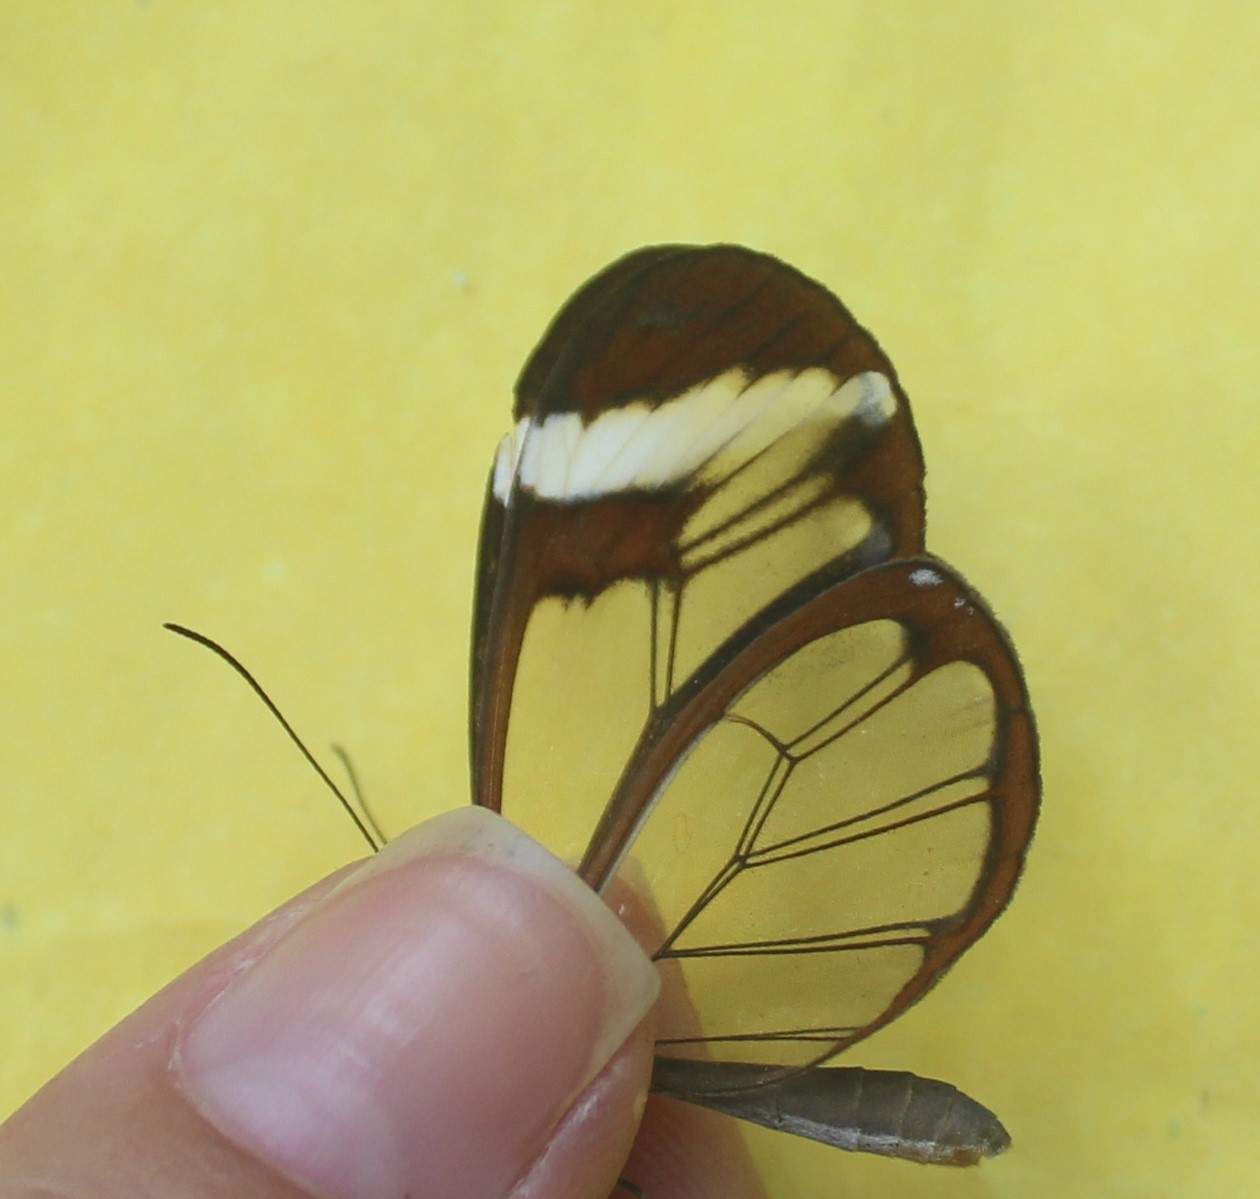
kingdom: Animalia
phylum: Arthropoda
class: Insecta
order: Lepidoptera
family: Nymphalidae
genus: Greta
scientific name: Greta morgane
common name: Thick-tipped greta
